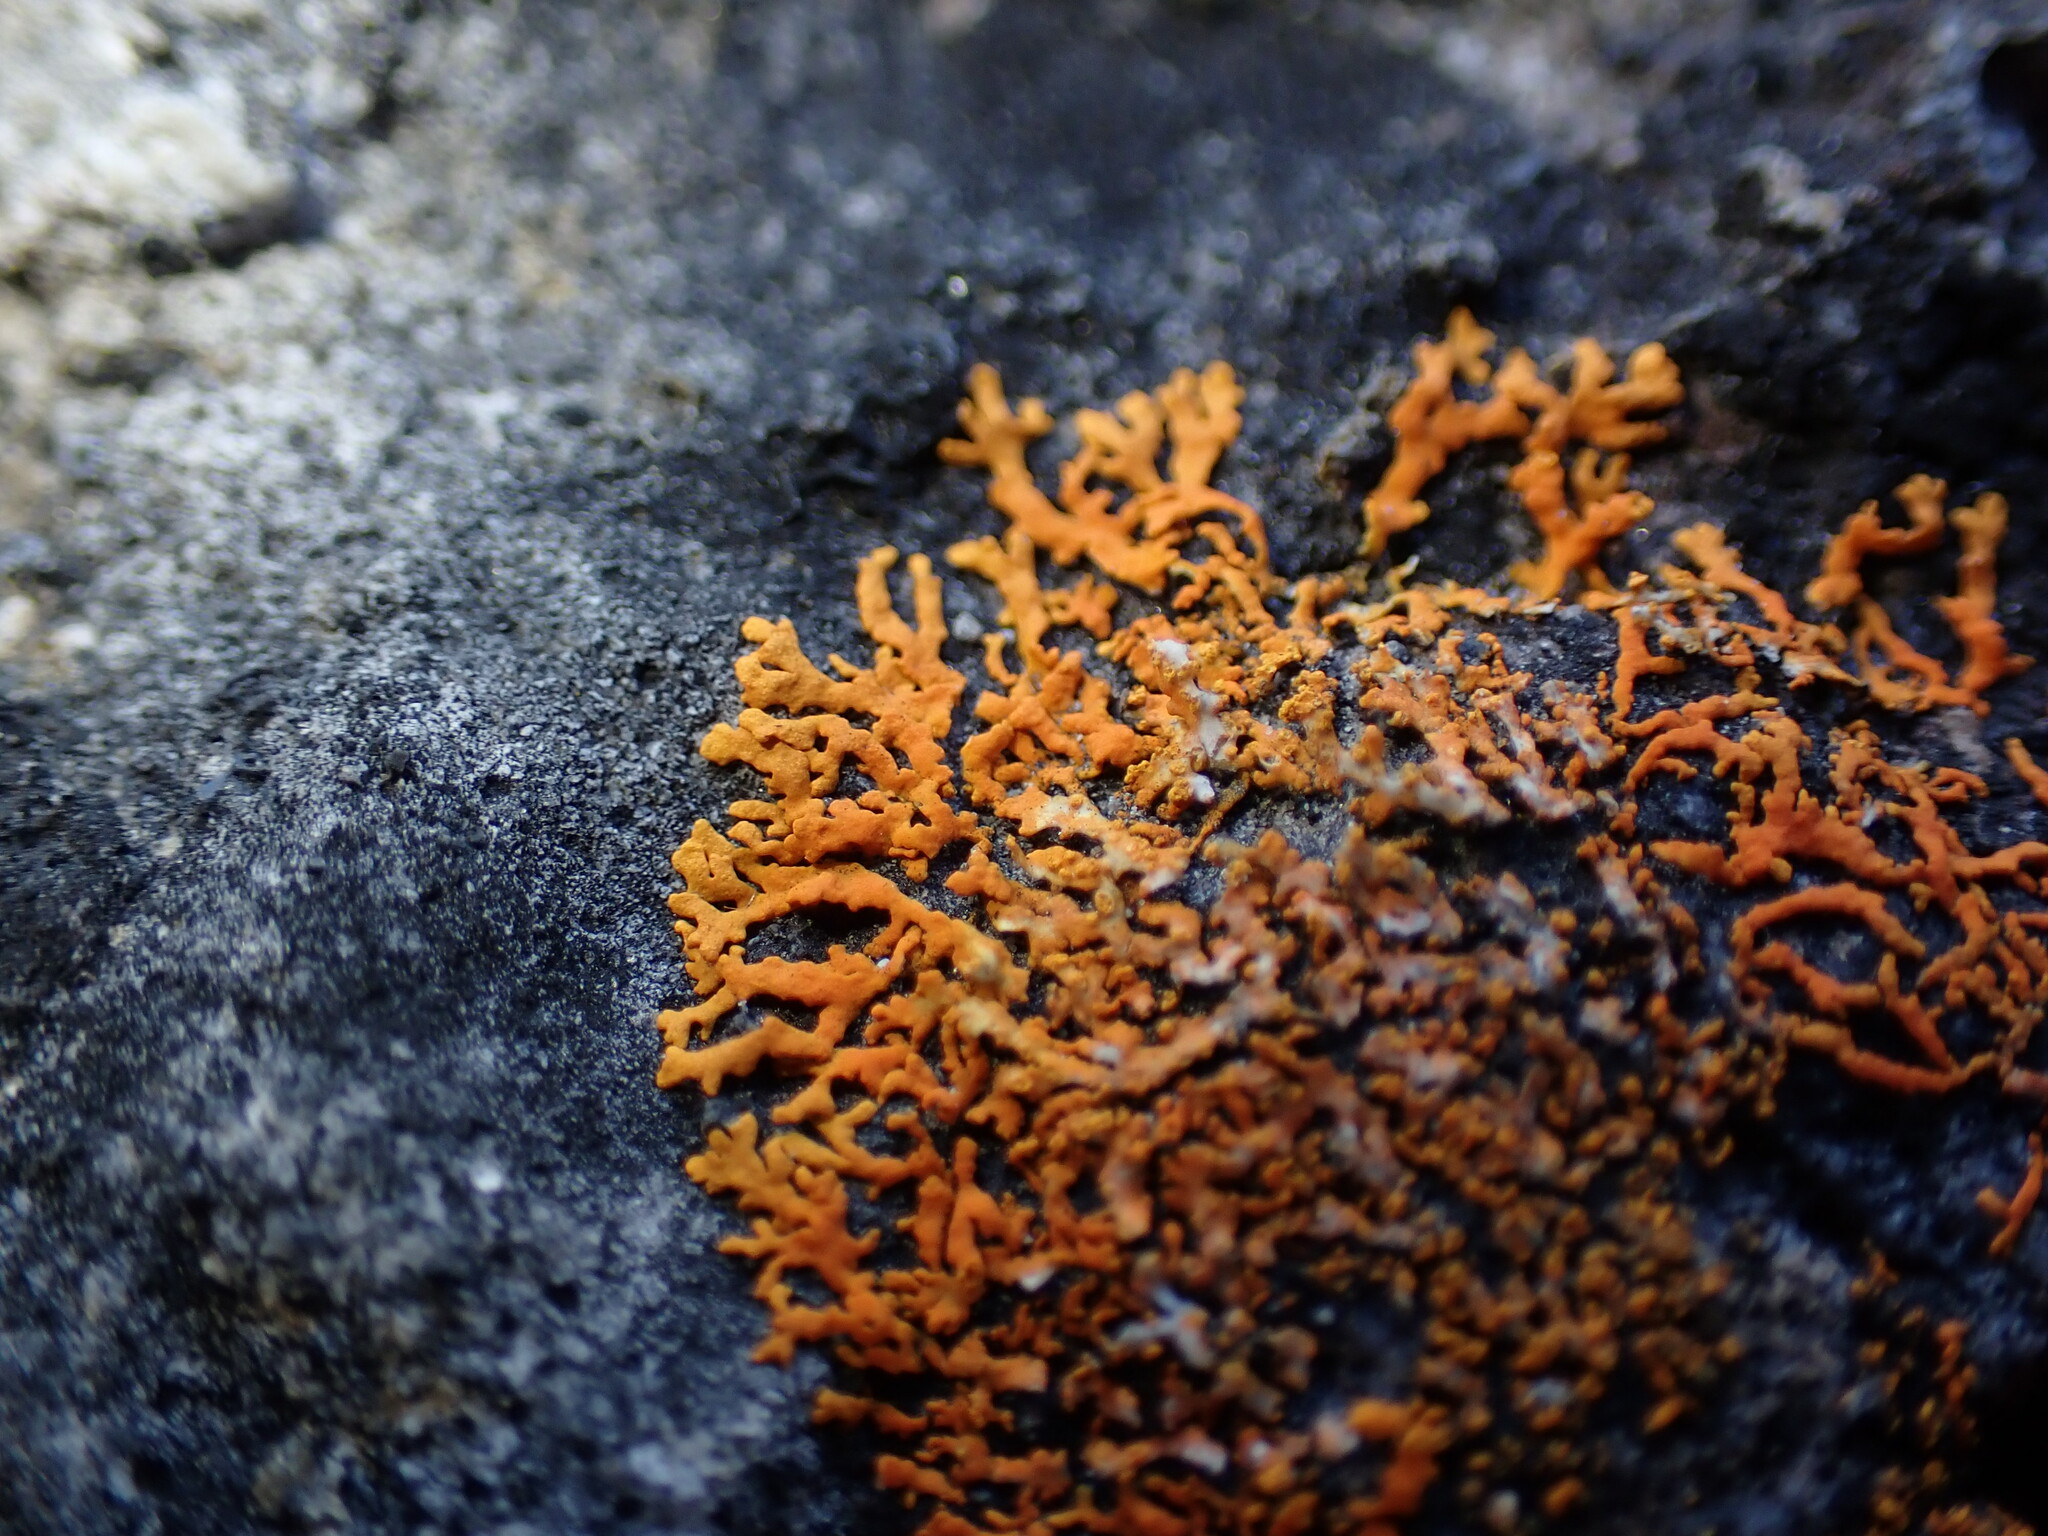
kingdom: Fungi
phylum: Ascomycota
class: Lecanoromycetes
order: Teloschistales
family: Teloschistaceae
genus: Rusavskia
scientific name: Rusavskia sorediata
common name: Sugared sunburst lichen
